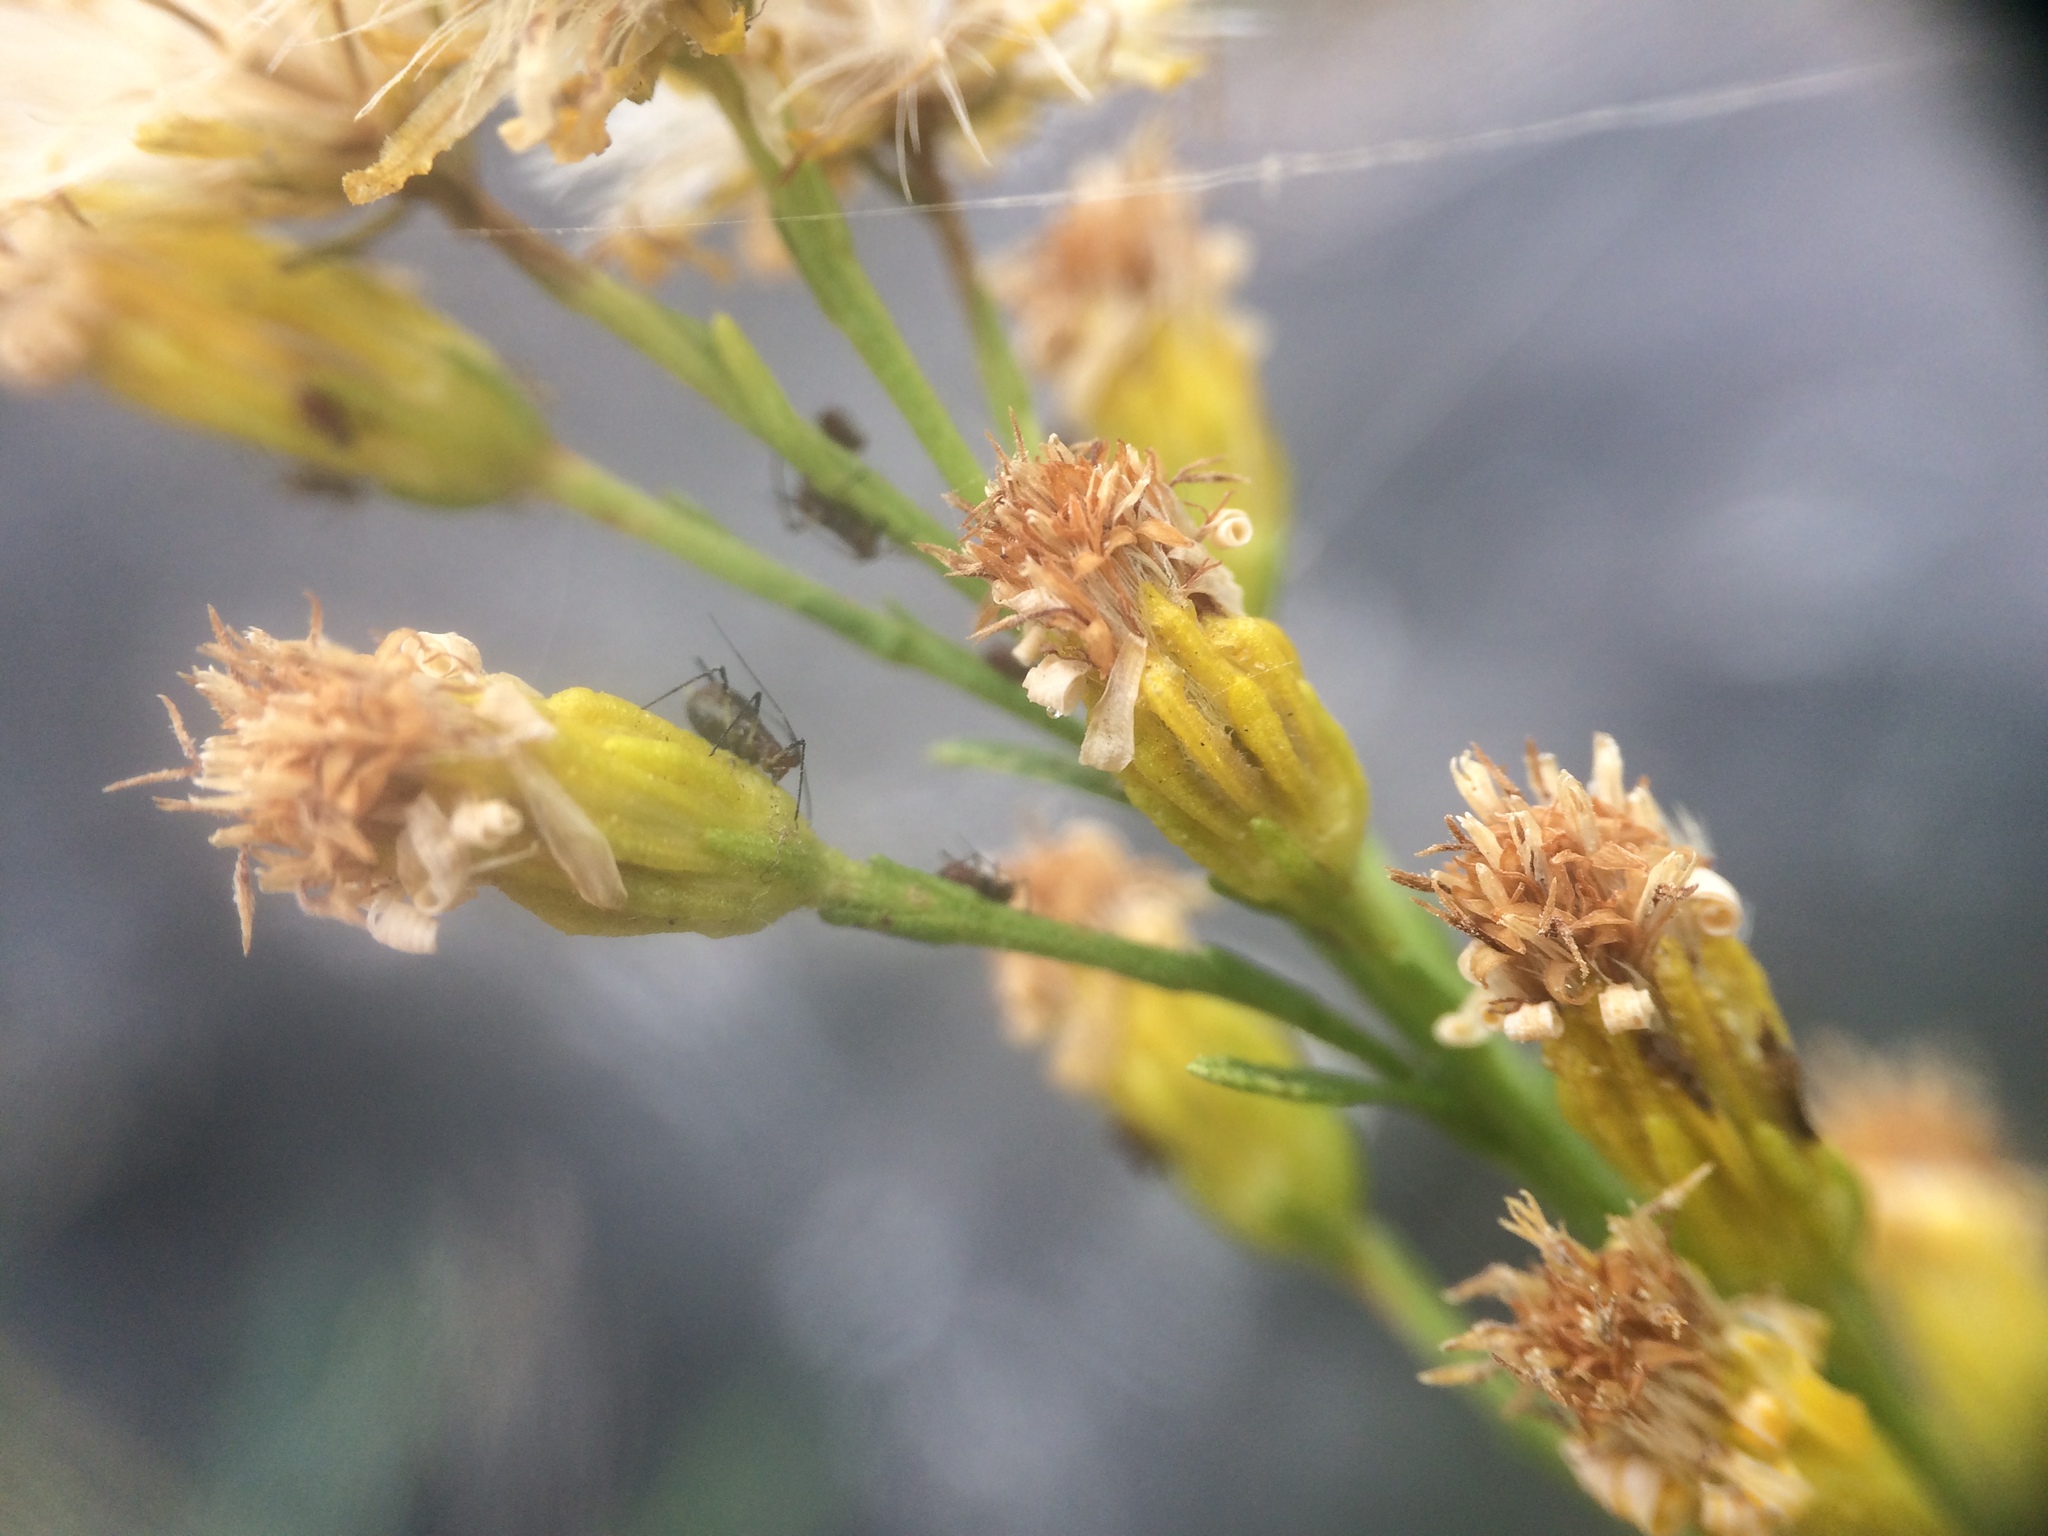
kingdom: Plantae
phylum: Tracheophyta
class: Magnoliopsida
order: Asterales
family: Asteraceae
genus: Solidago
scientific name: Solidago racemosa
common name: Lake ontario goldenrod
